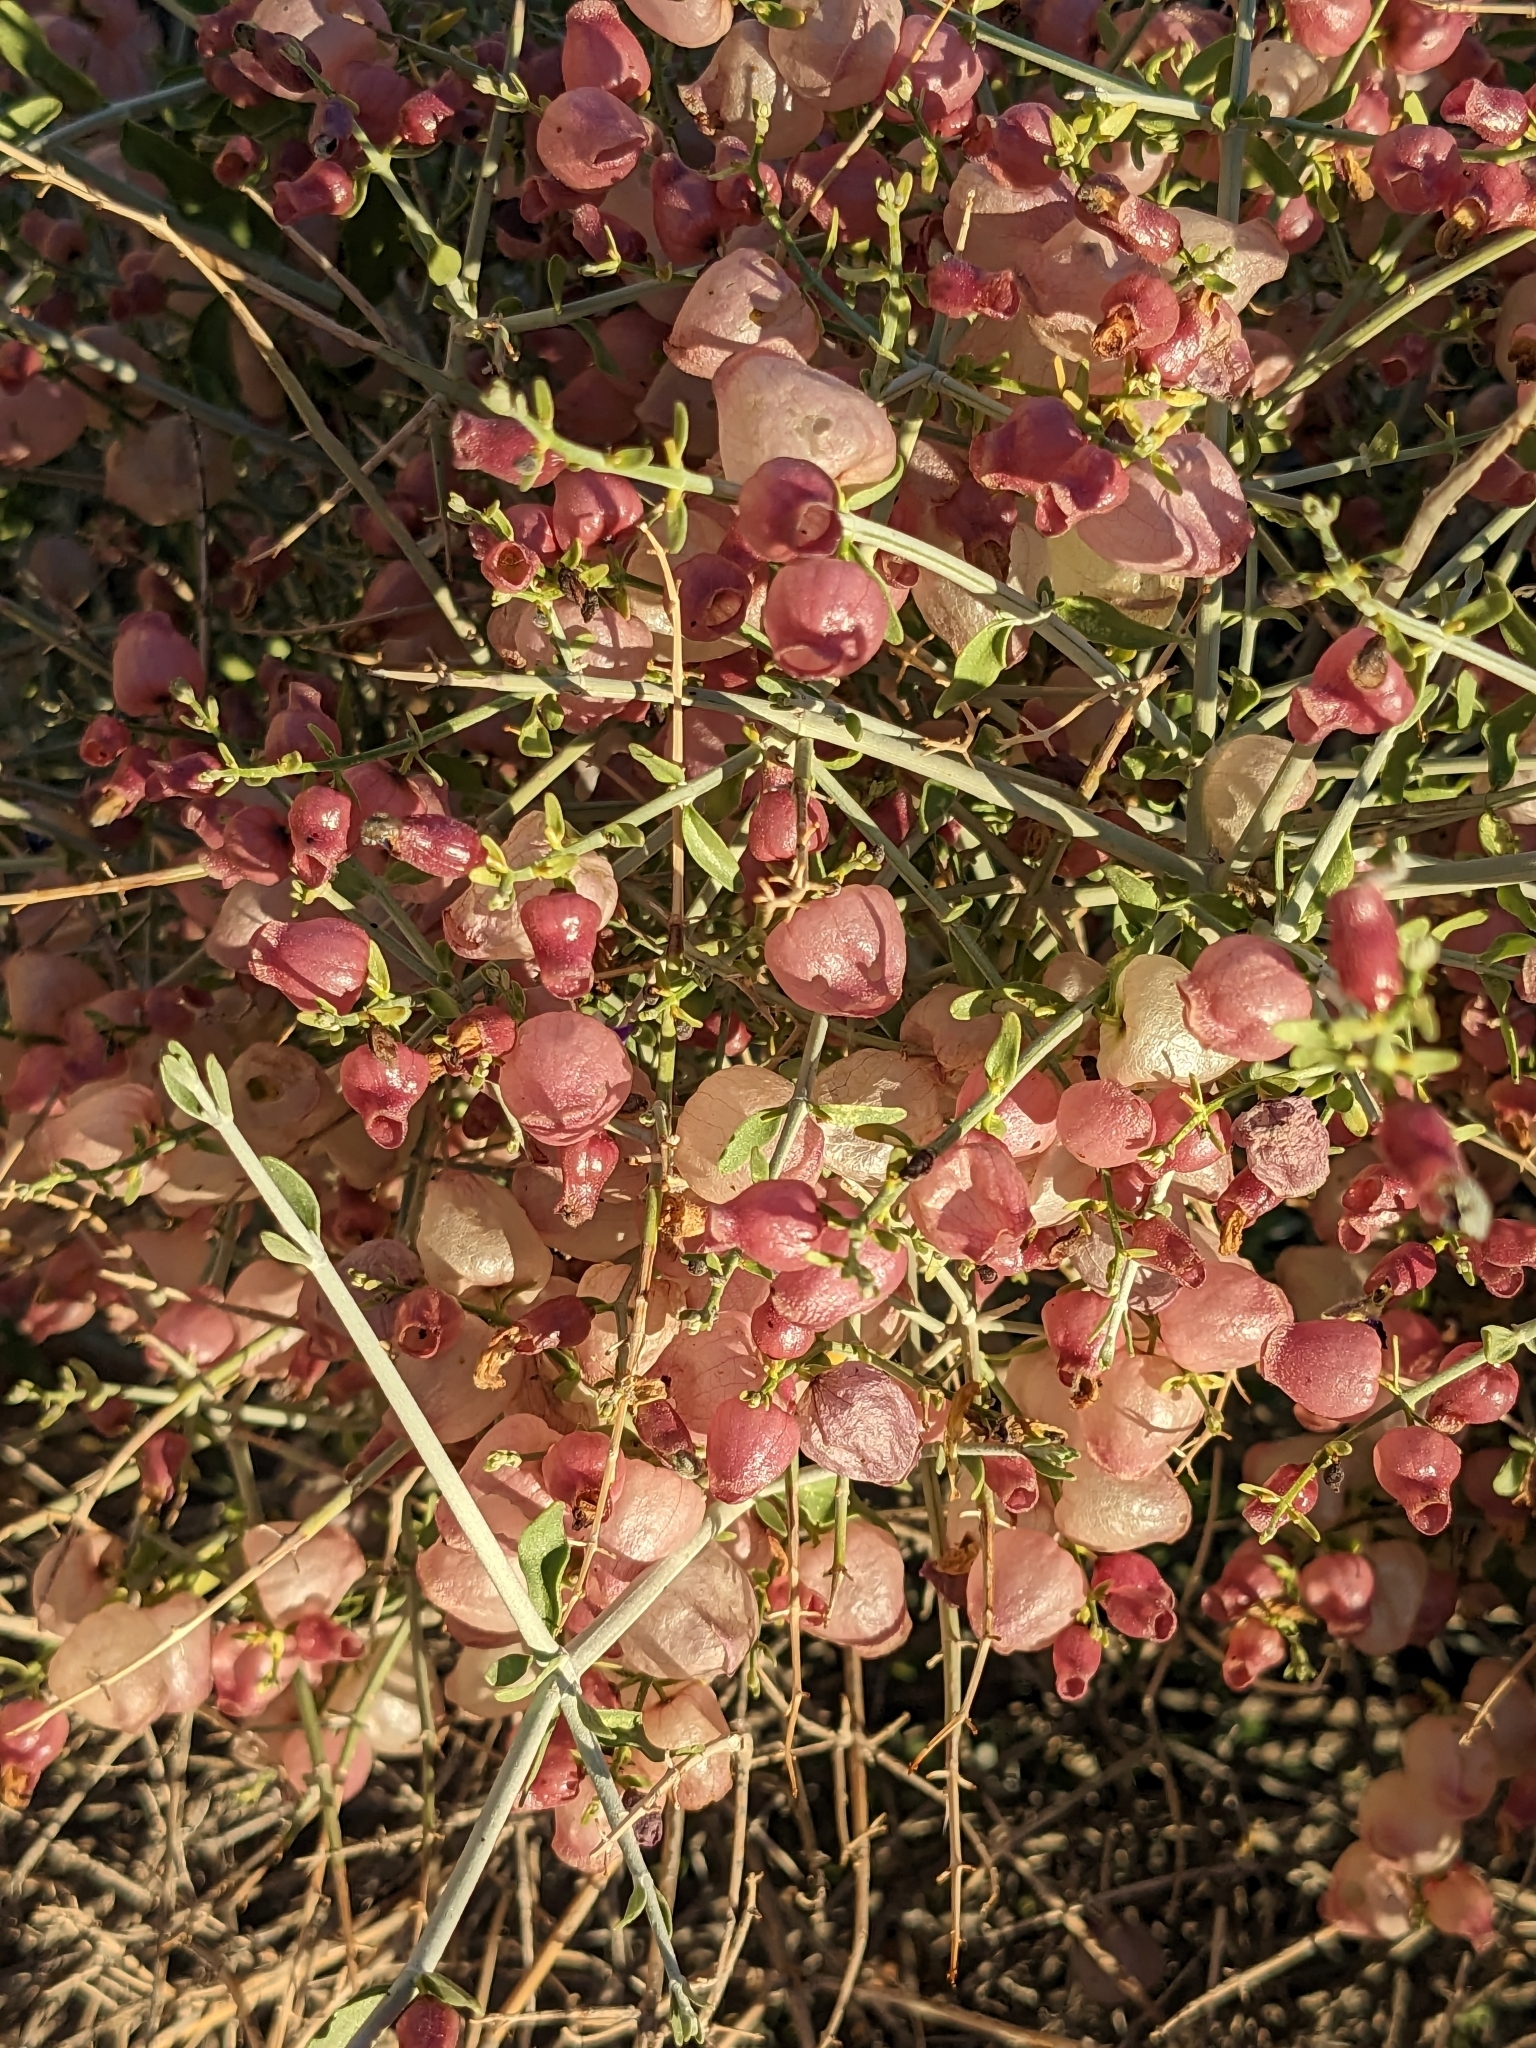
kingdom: Plantae
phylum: Tracheophyta
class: Magnoliopsida
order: Lamiales
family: Lamiaceae
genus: Scutellaria
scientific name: Scutellaria mexicana
